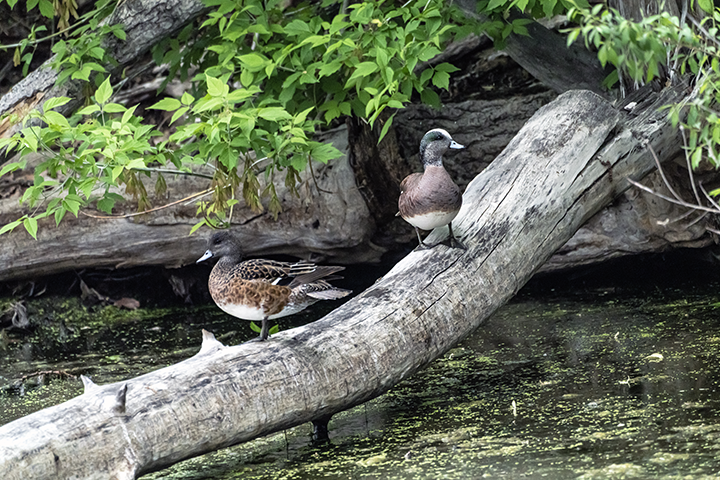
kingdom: Animalia
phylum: Chordata
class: Aves
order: Anseriformes
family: Anatidae
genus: Mareca
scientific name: Mareca americana
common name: American wigeon
